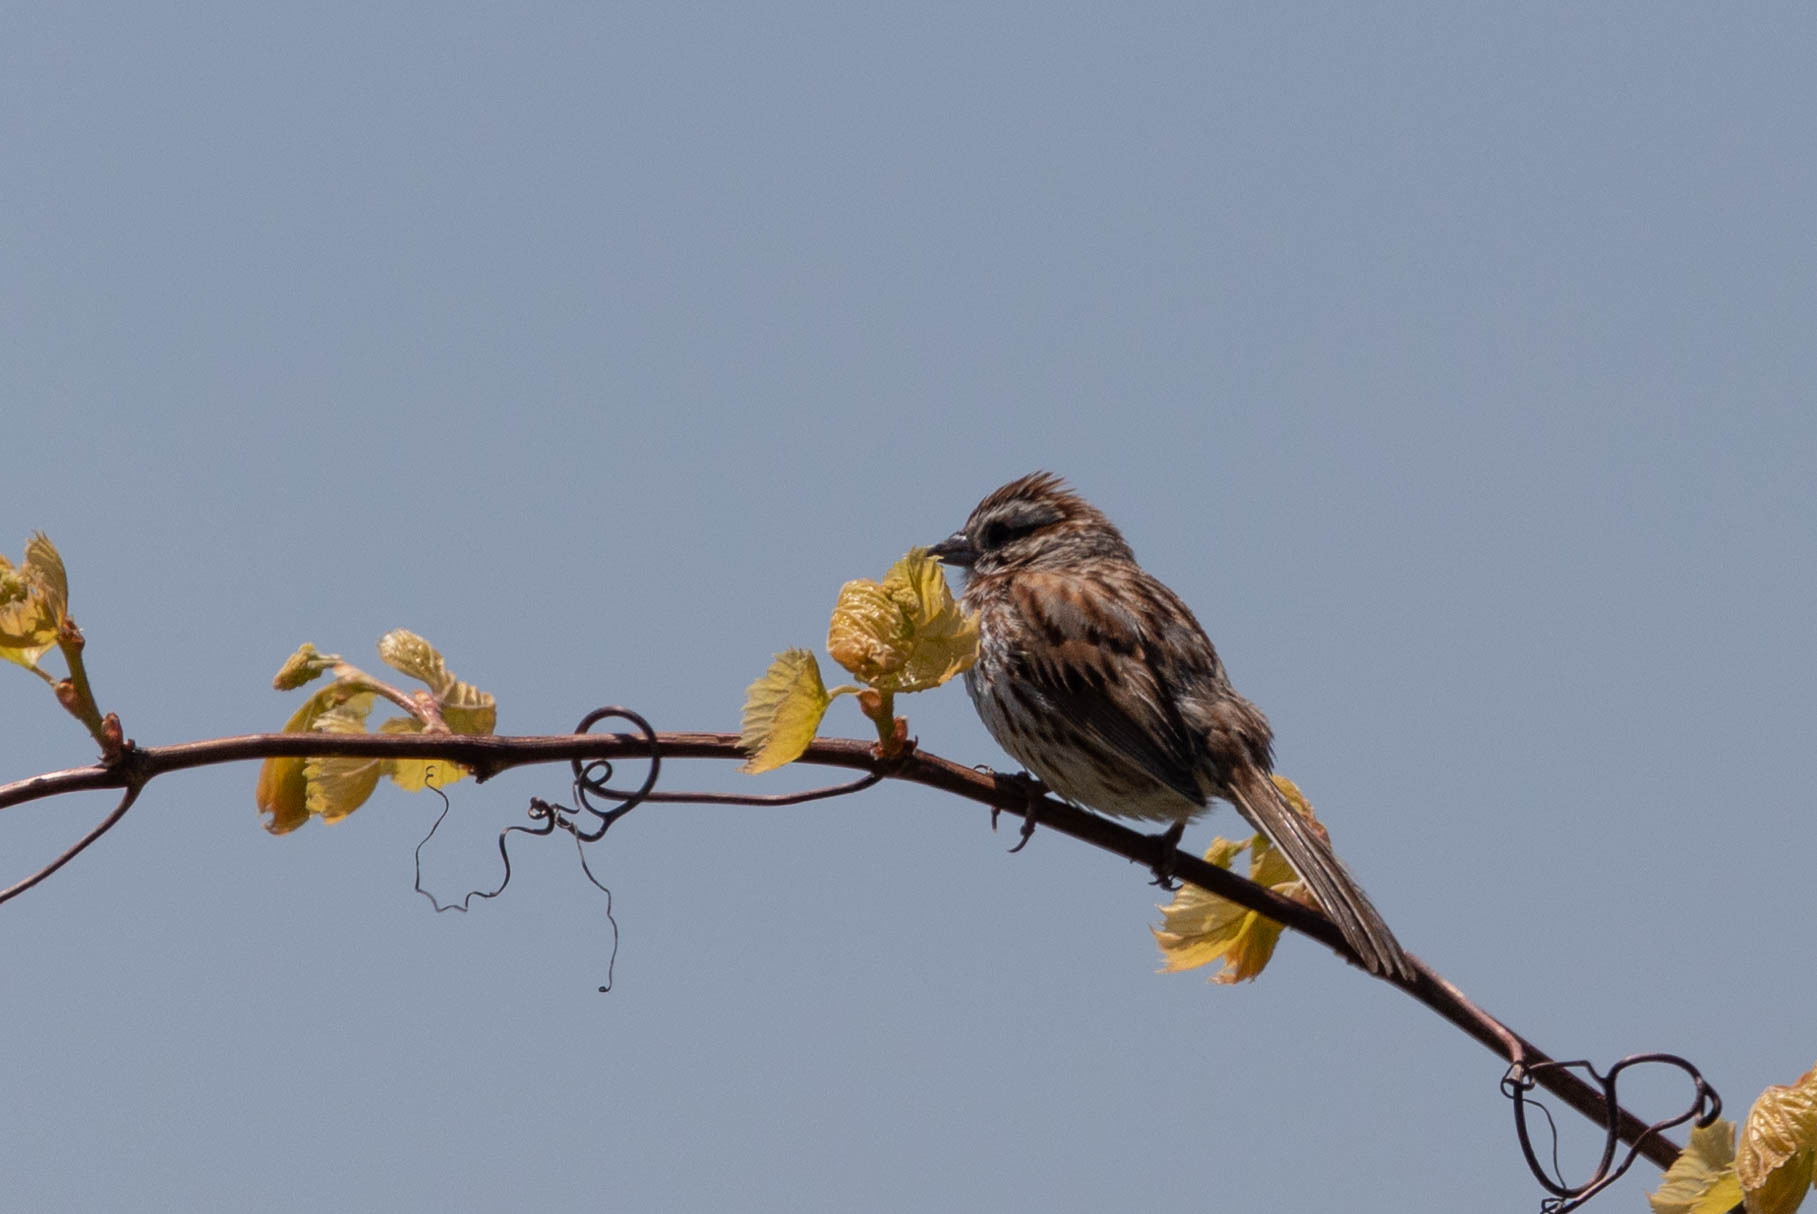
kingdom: Animalia
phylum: Chordata
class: Aves
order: Passeriformes
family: Passerellidae
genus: Melospiza
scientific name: Melospiza melodia
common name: Song sparrow
